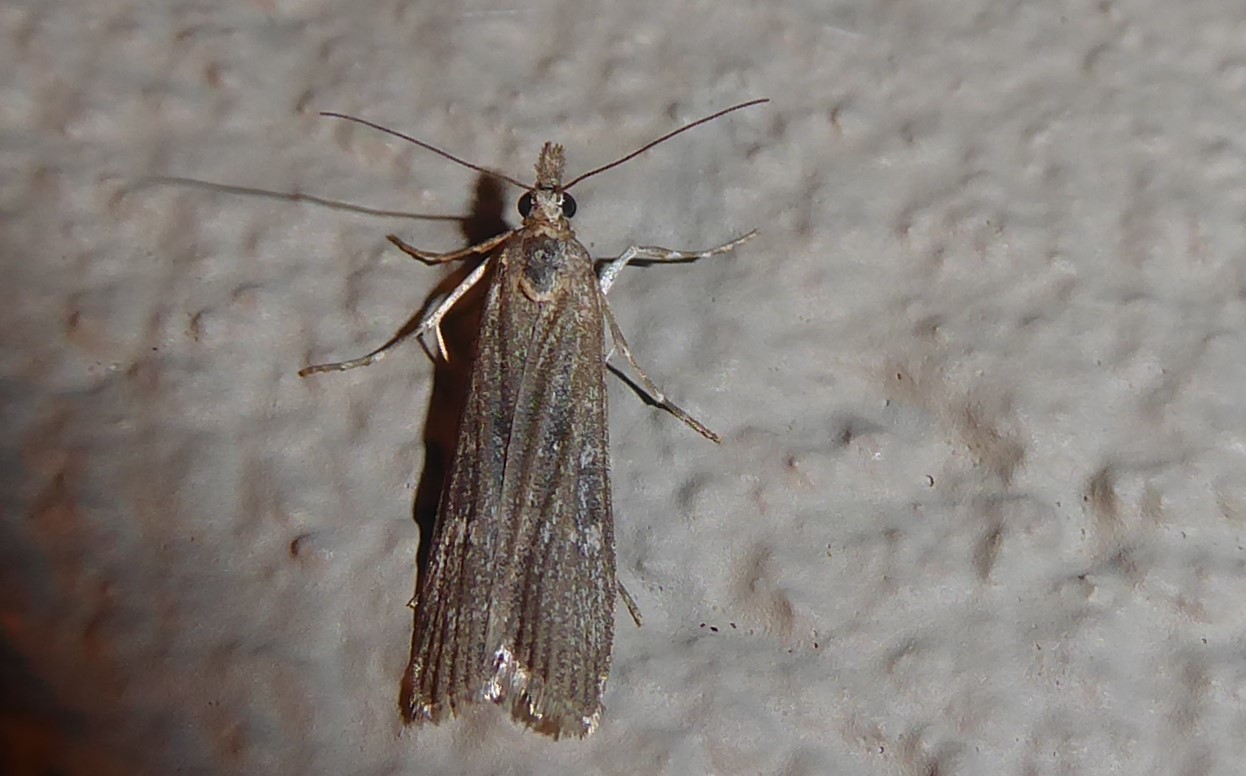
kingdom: Animalia
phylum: Arthropoda
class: Insecta
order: Lepidoptera
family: Crambidae
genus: Eudonia
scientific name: Eudonia leptalea
